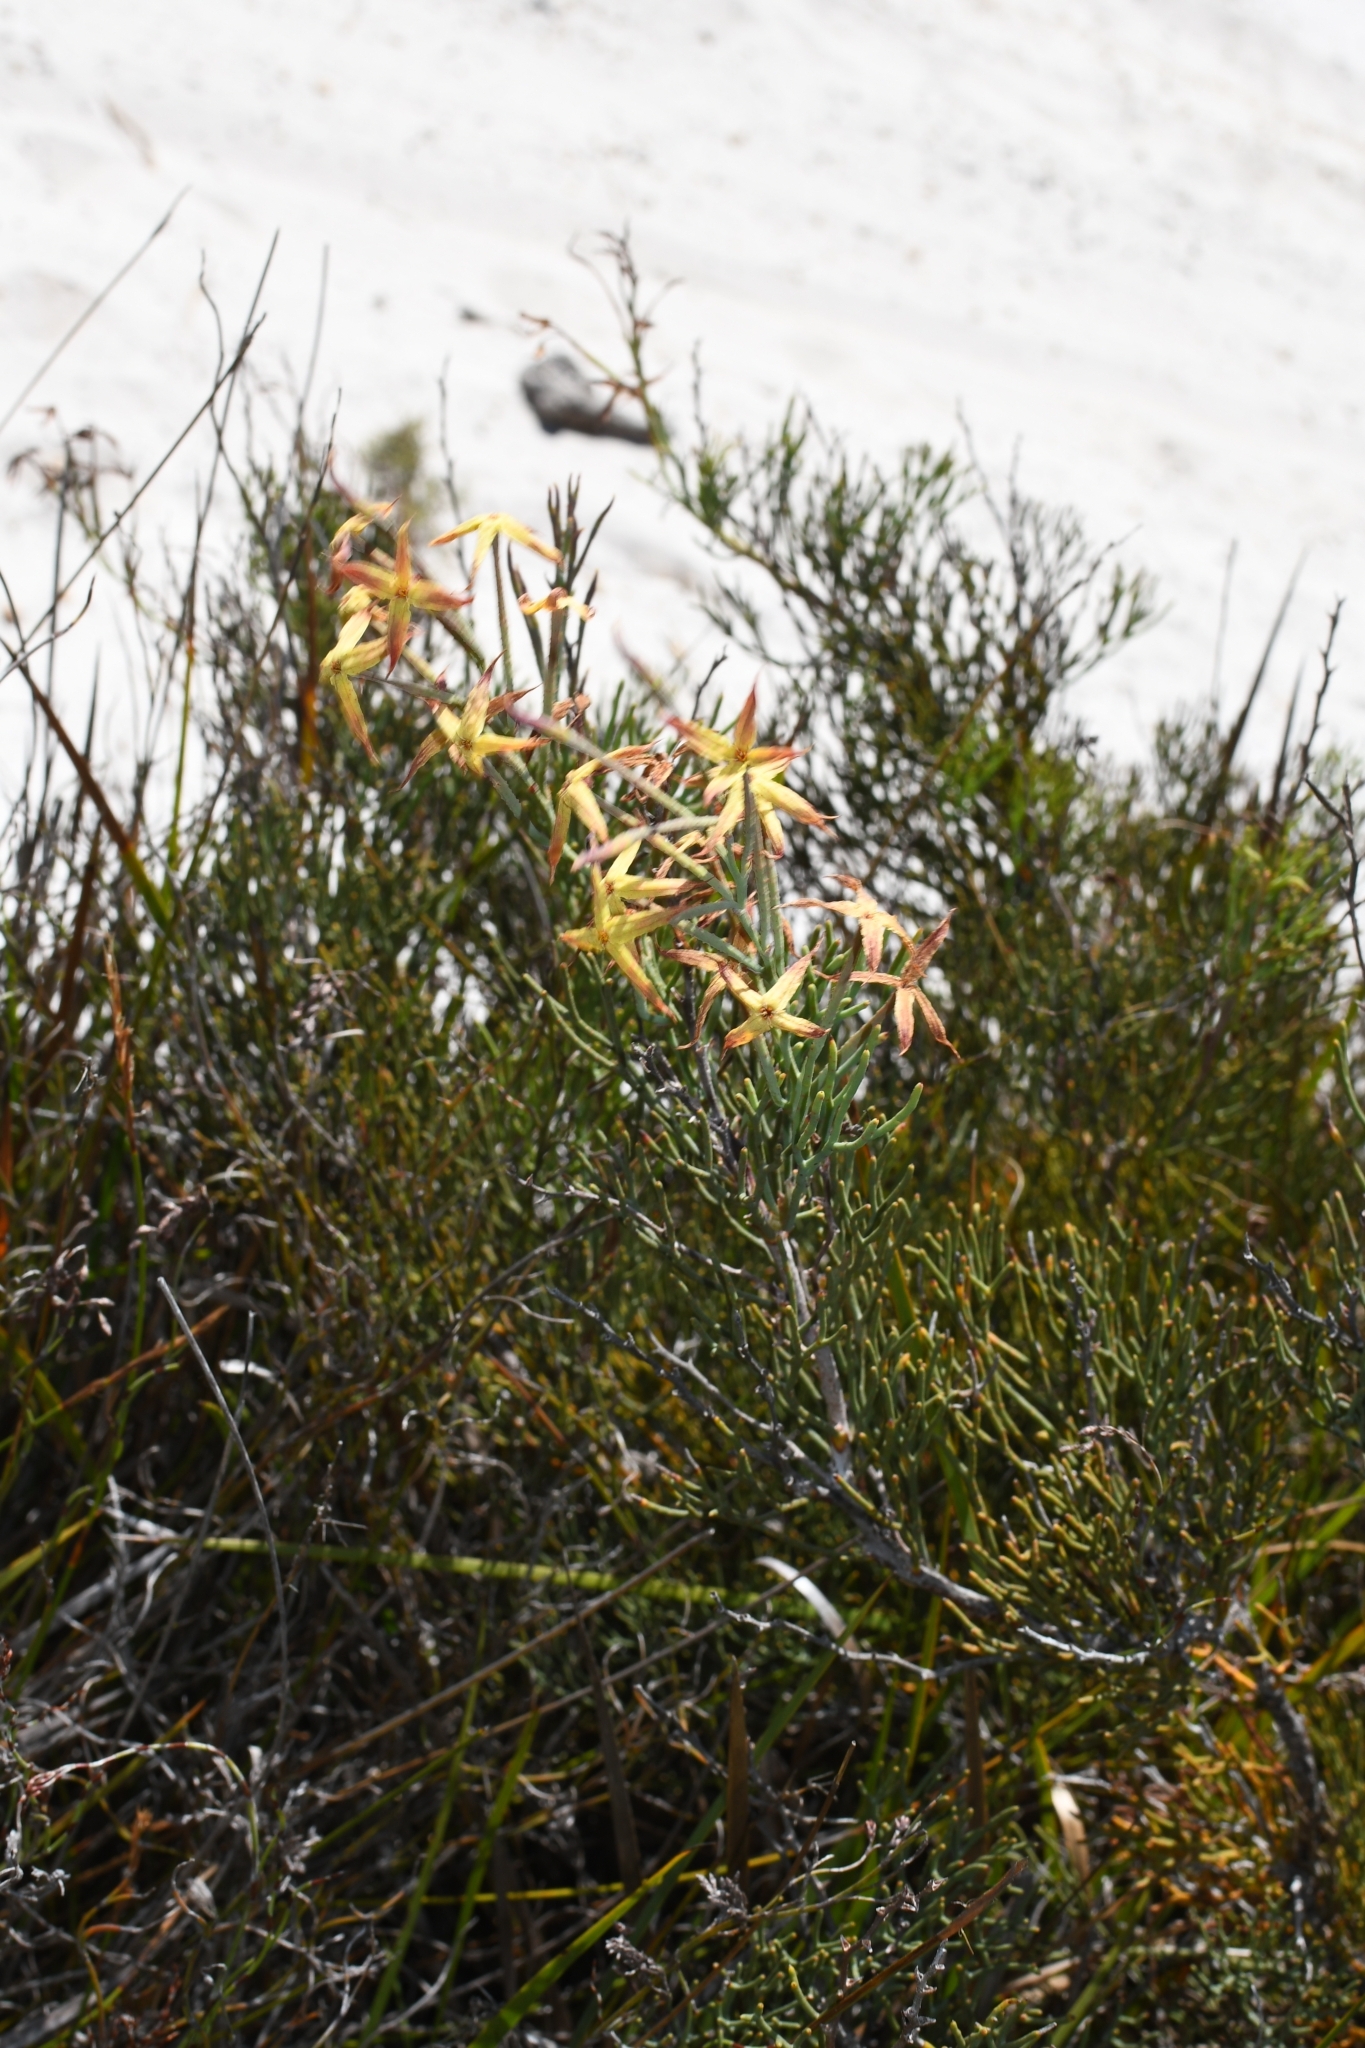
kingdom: Plantae
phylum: Tracheophyta
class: Magnoliopsida
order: Proteales
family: Proteaceae
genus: Franklandia
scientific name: Franklandia fucifolia
